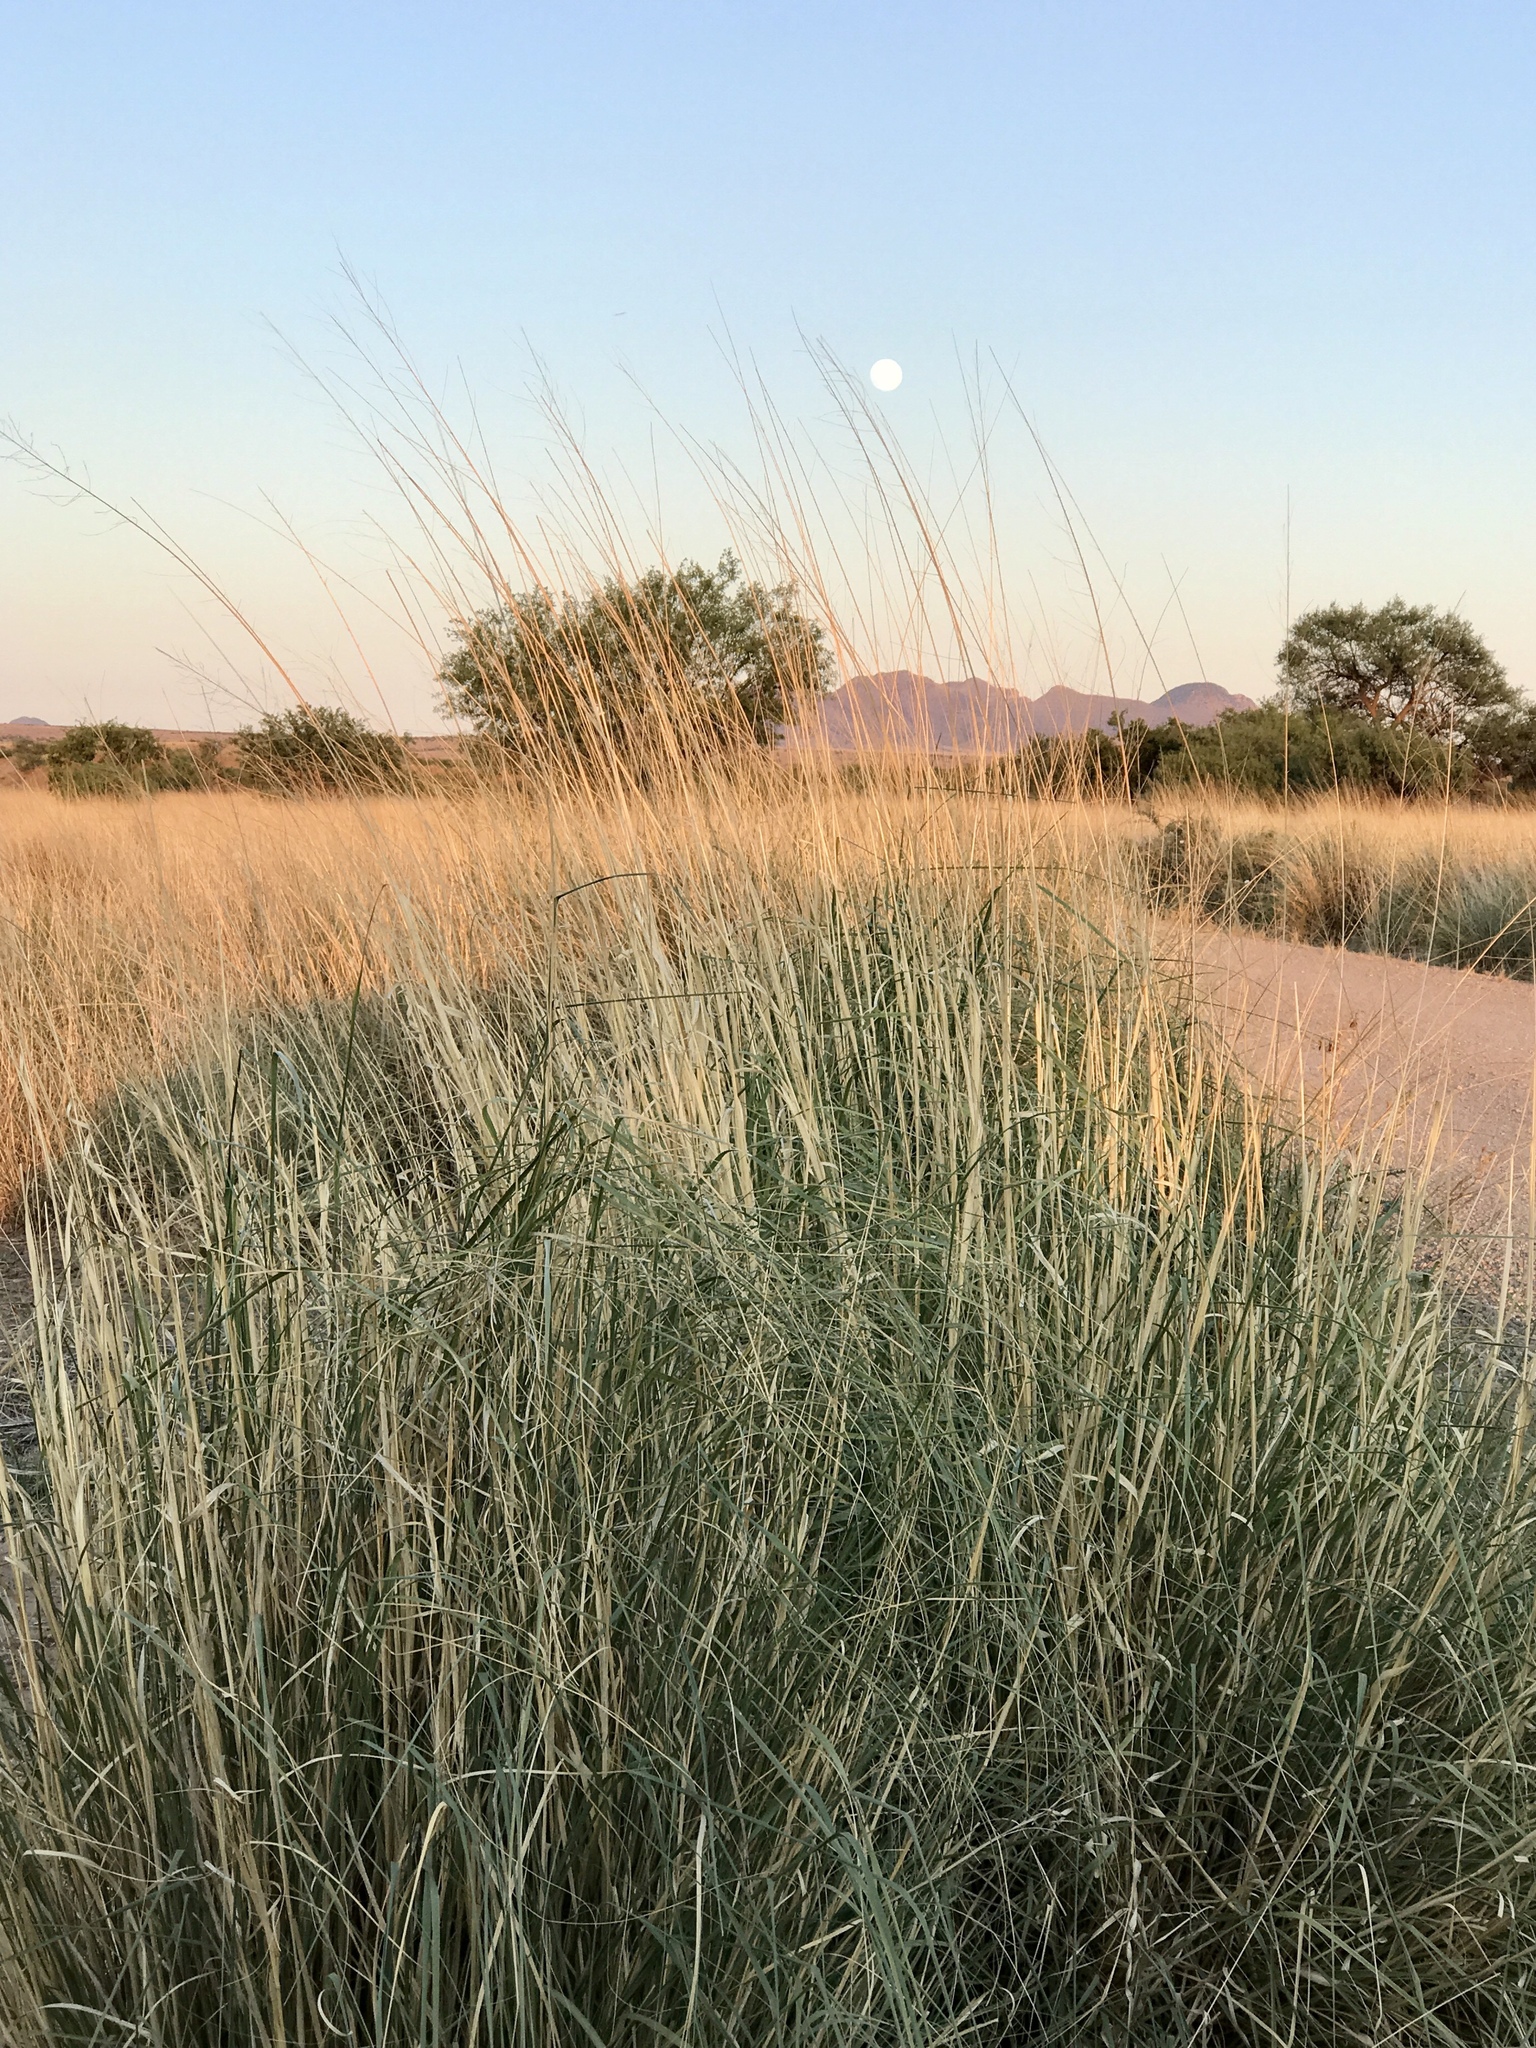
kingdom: Plantae
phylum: Tracheophyta
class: Liliopsida
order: Poales
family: Poaceae
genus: Sporobolus
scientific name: Sporobolus wrightii
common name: Big alkali sacaton
